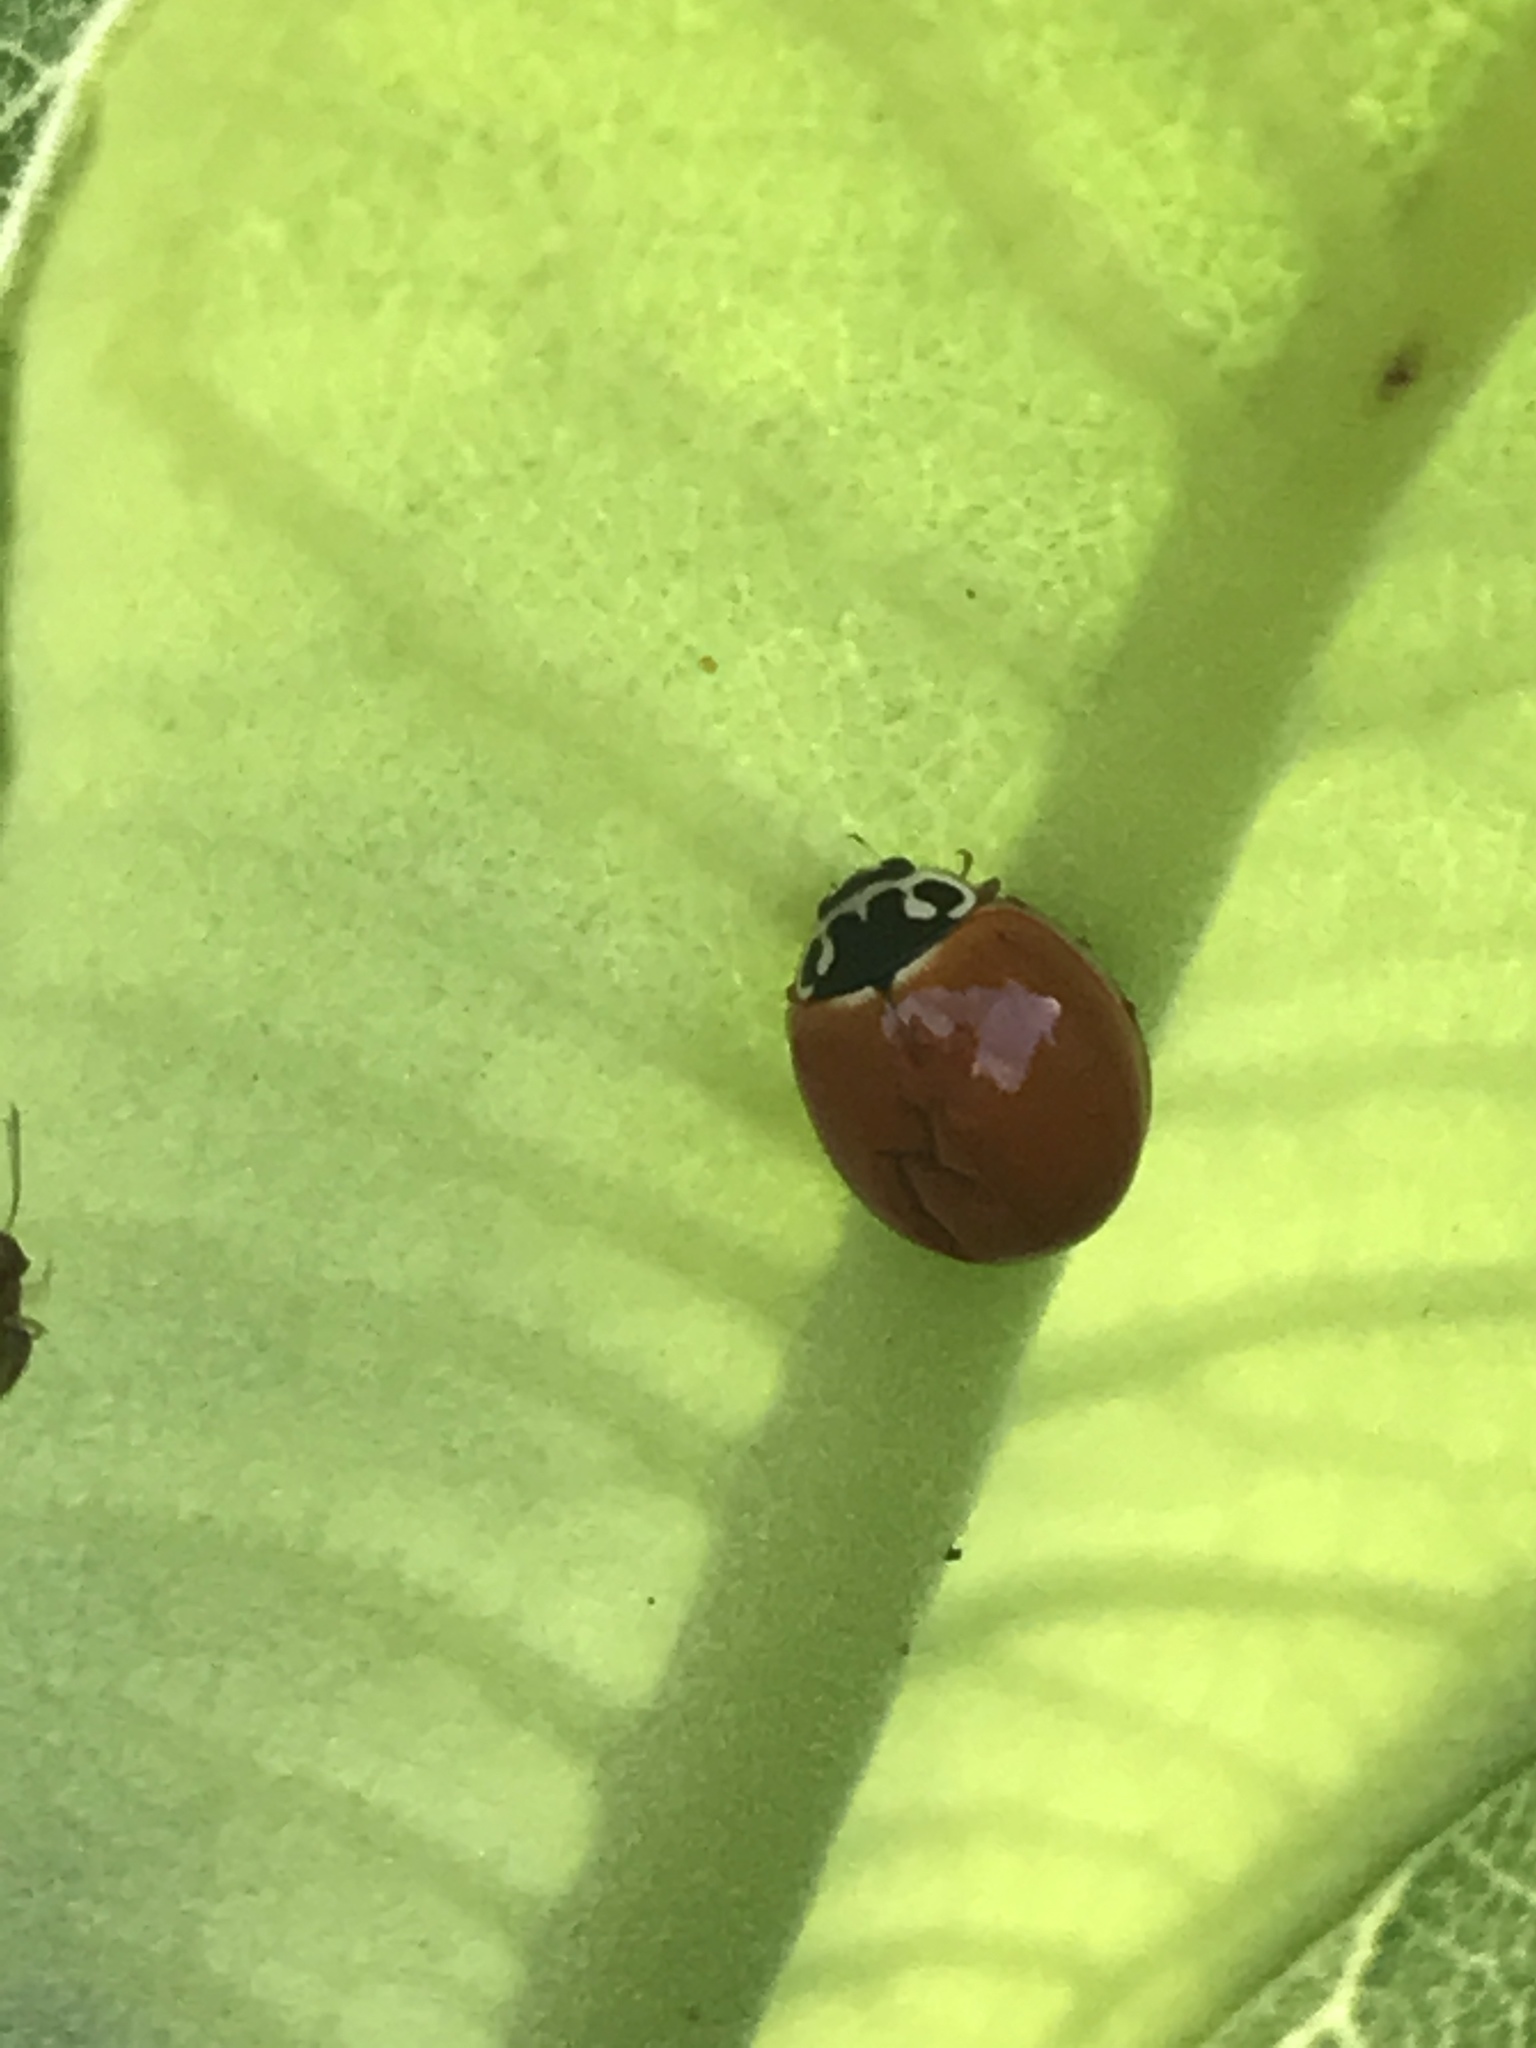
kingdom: Animalia
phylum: Arthropoda
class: Insecta
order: Coleoptera
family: Coccinellidae
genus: Cycloneda
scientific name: Cycloneda munda
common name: Polished lady beetle
